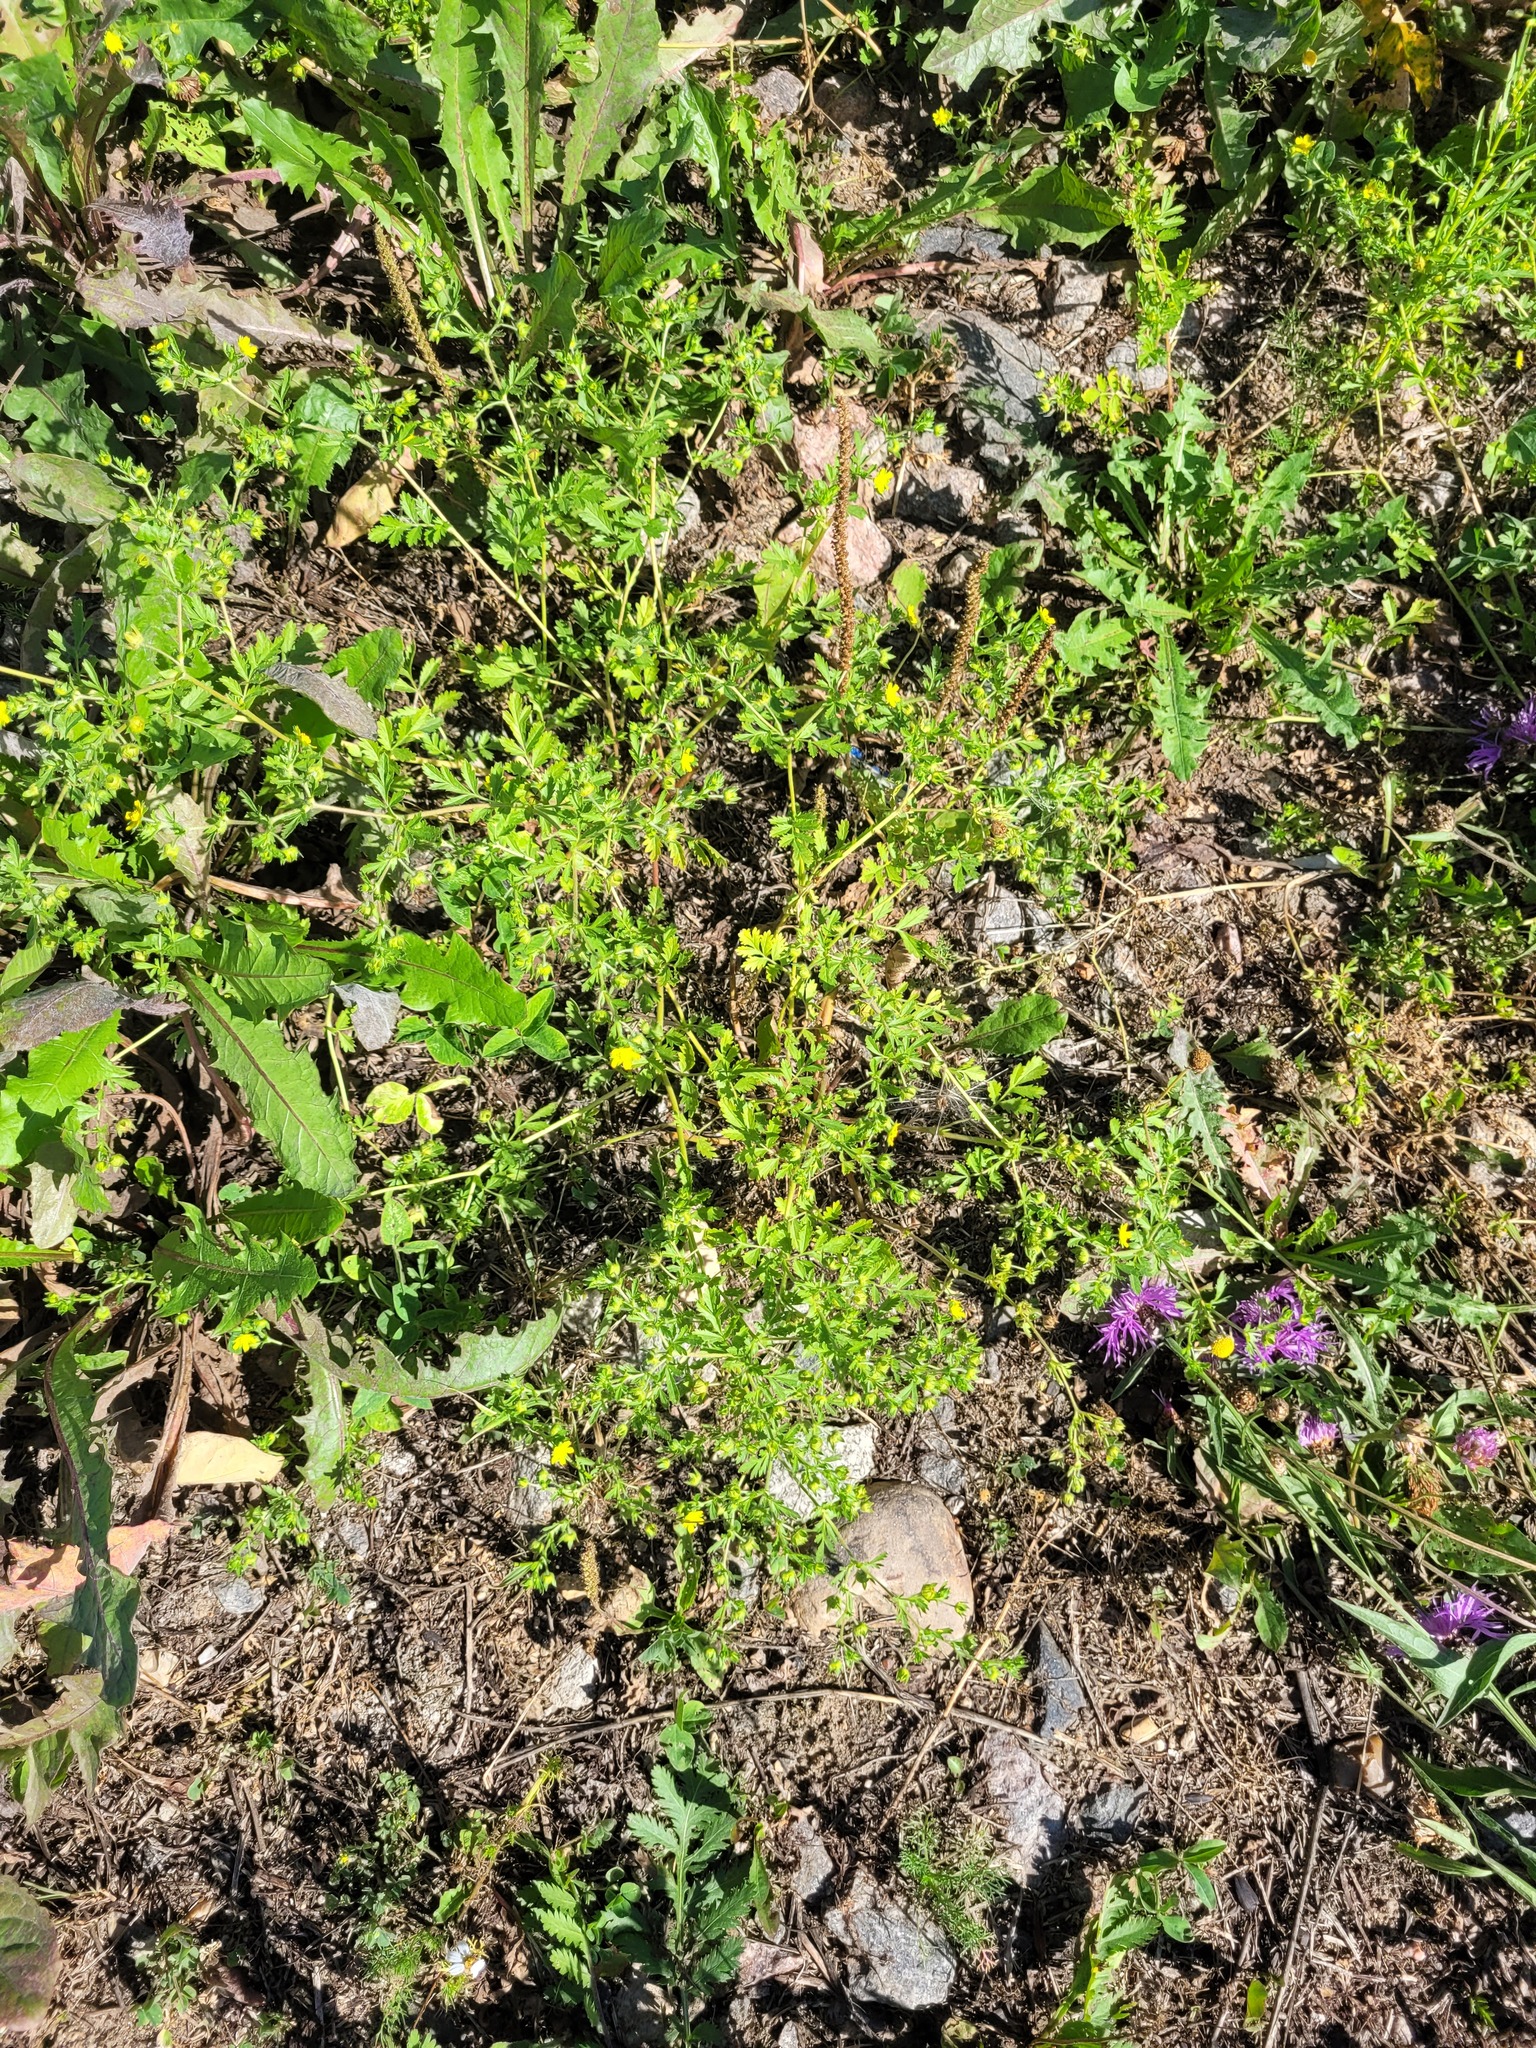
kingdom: Plantae
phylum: Tracheophyta
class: Magnoliopsida
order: Rosales
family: Rosaceae
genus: Potentilla
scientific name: Potentilla supina
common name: Prostrate cinquefoil
